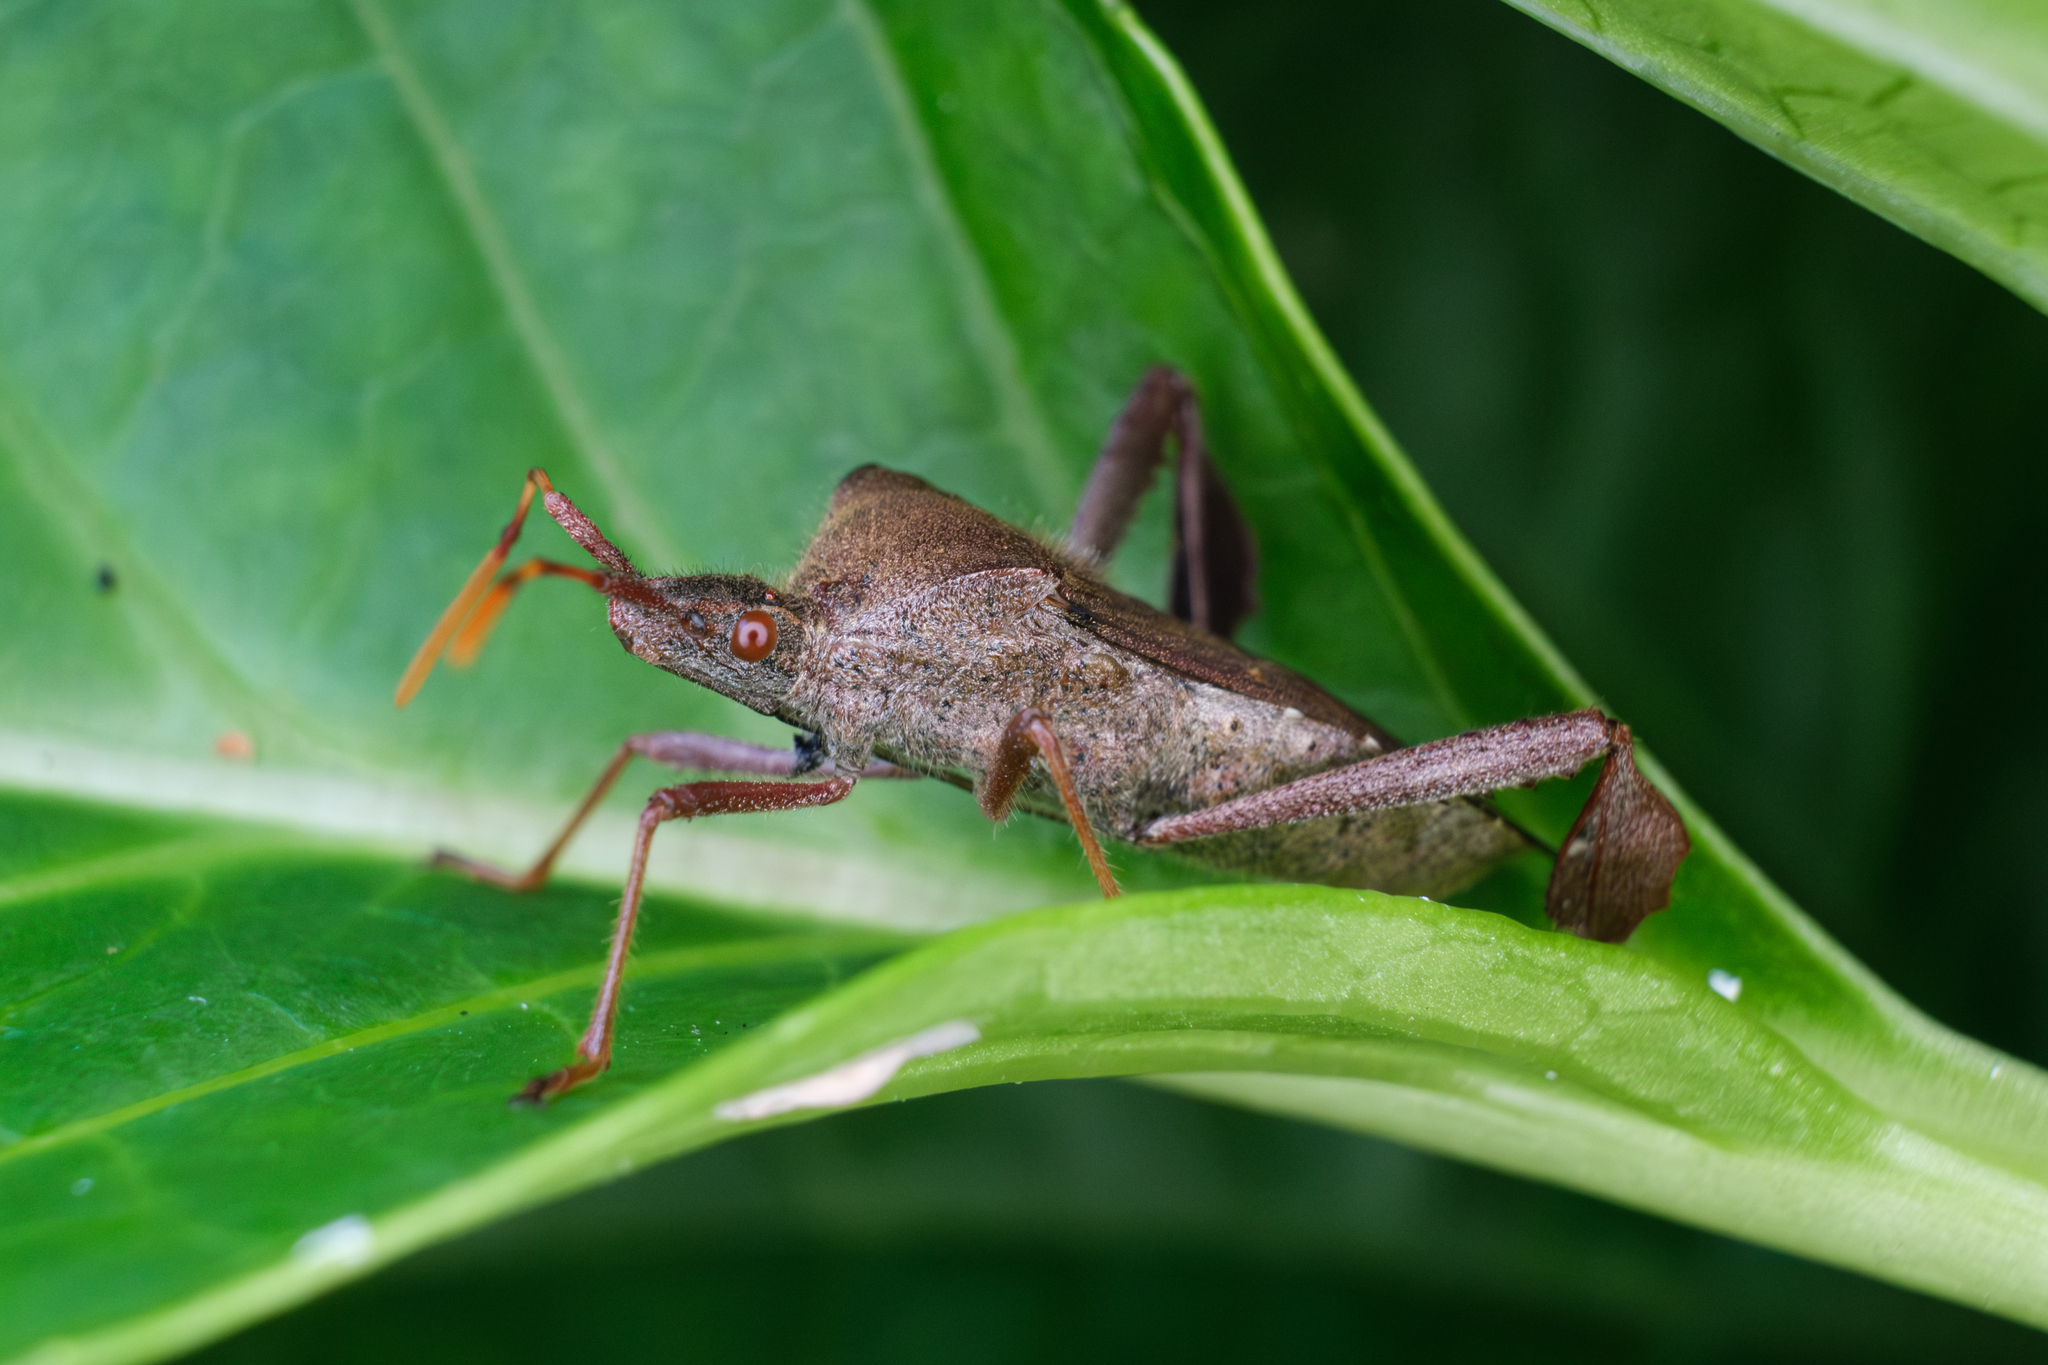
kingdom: Animalia
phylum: Arthropoda
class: Insecta
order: Hemiptera
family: Coreidae
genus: Leptoglossus
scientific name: Leptoglossus oppositus
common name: Northern leaf-footed bug
